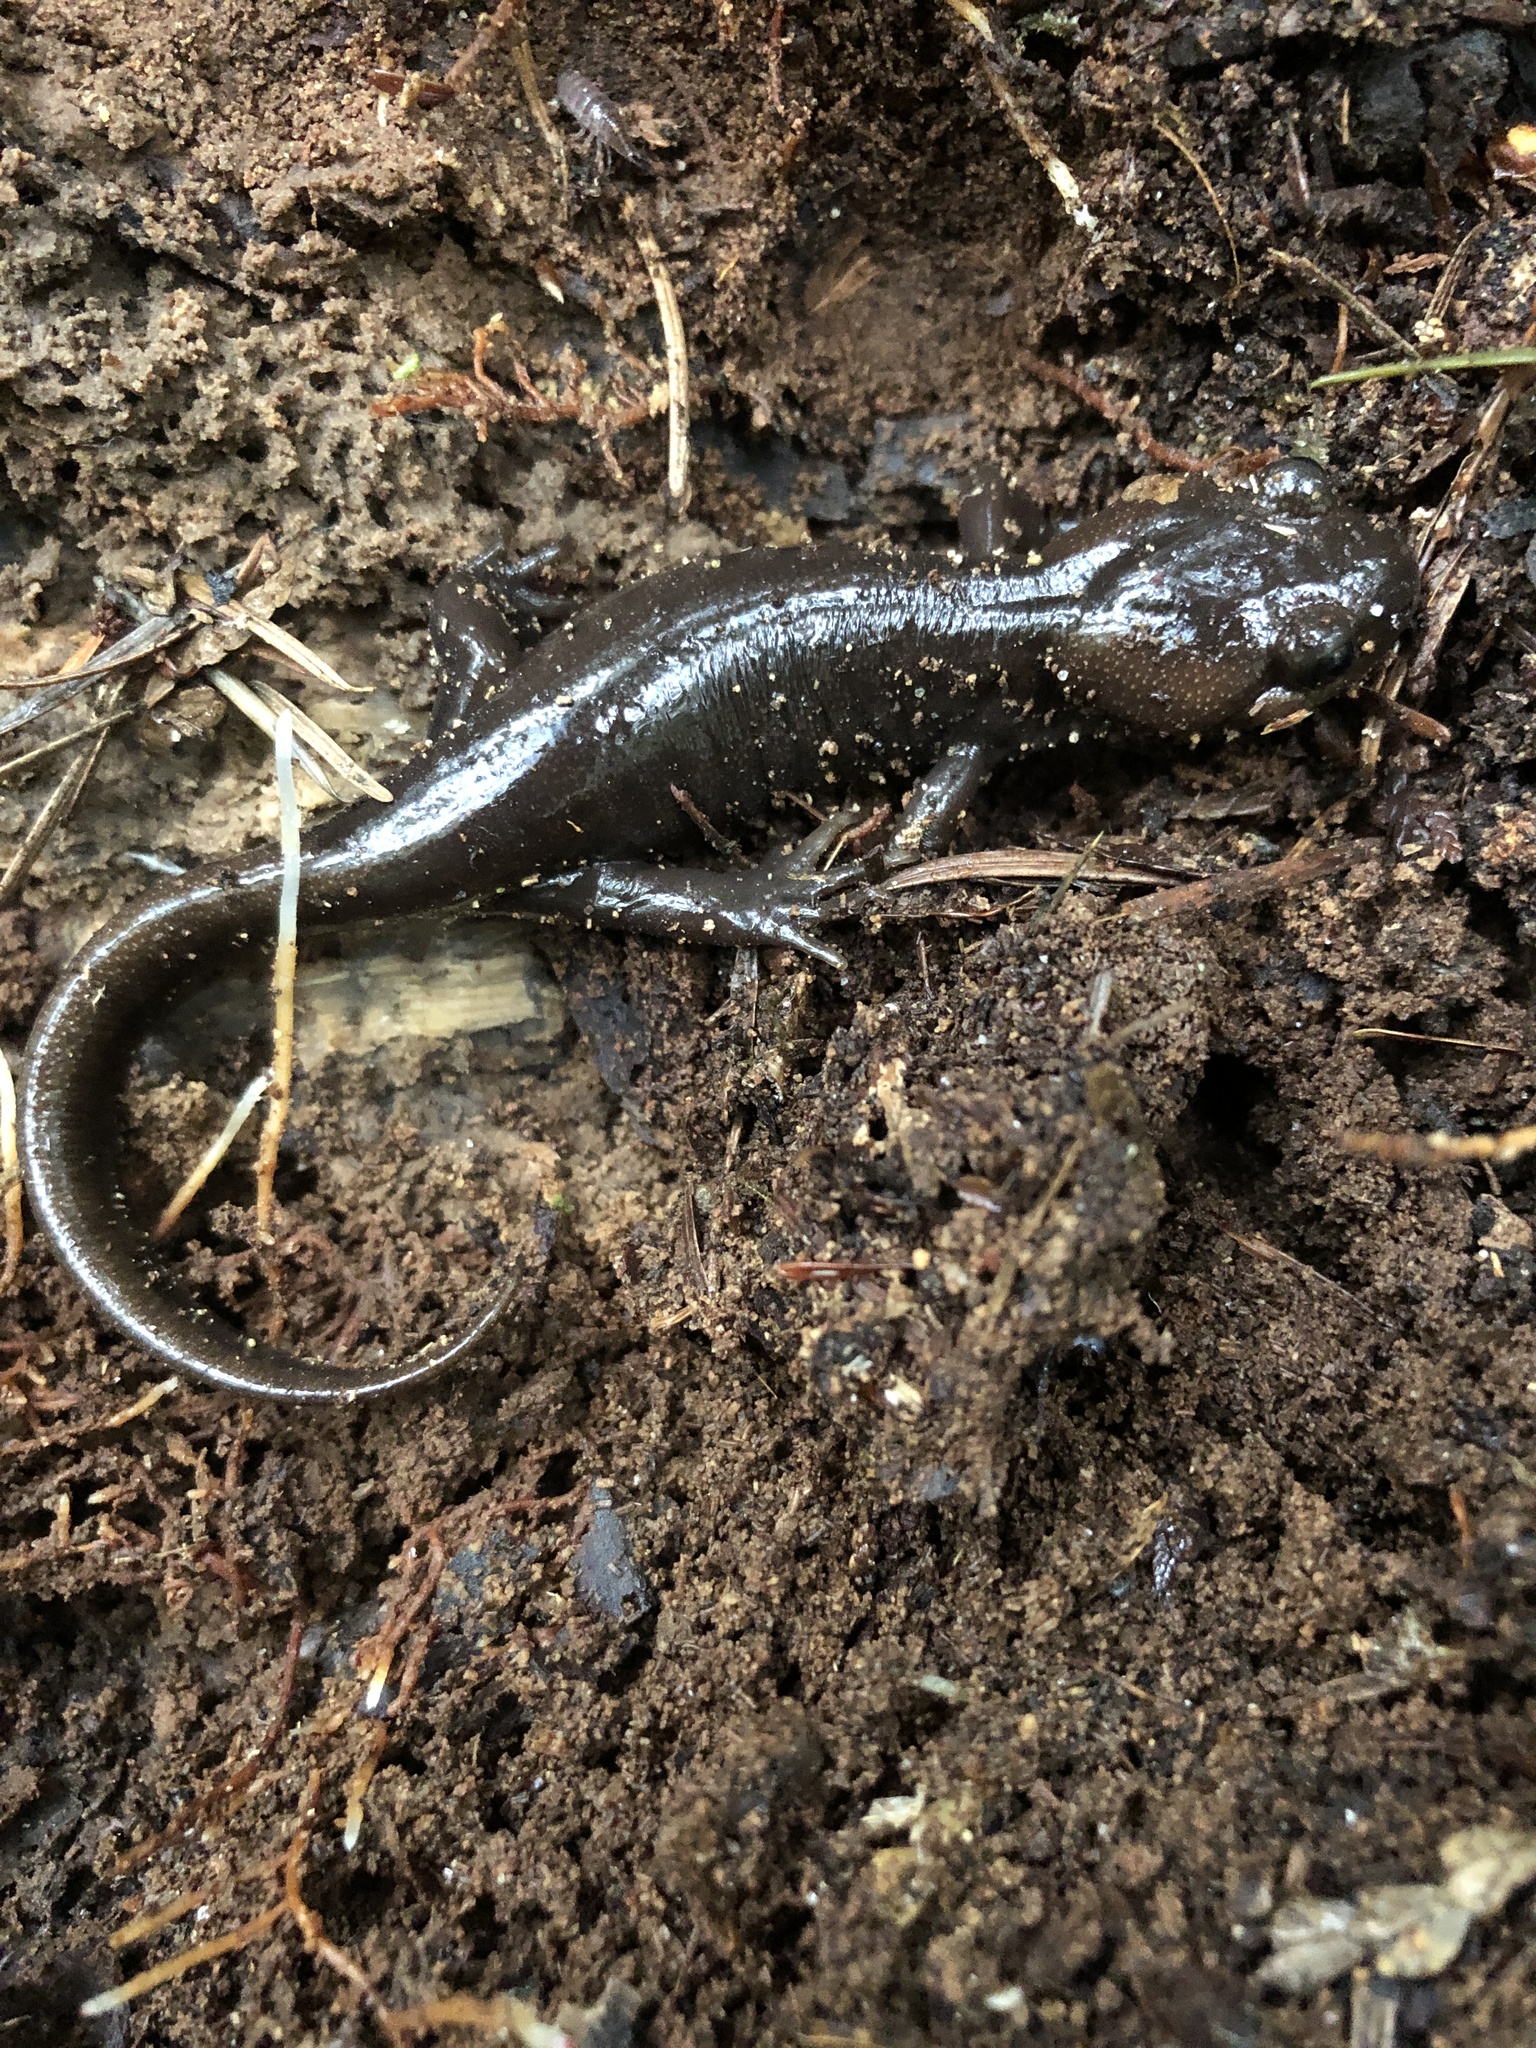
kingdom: Animalia
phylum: Chordata
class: Amphibia
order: Caudata
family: Ambystomatidae
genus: Ambystoma
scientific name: Ambystoma gracile
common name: Northwestern salamander
